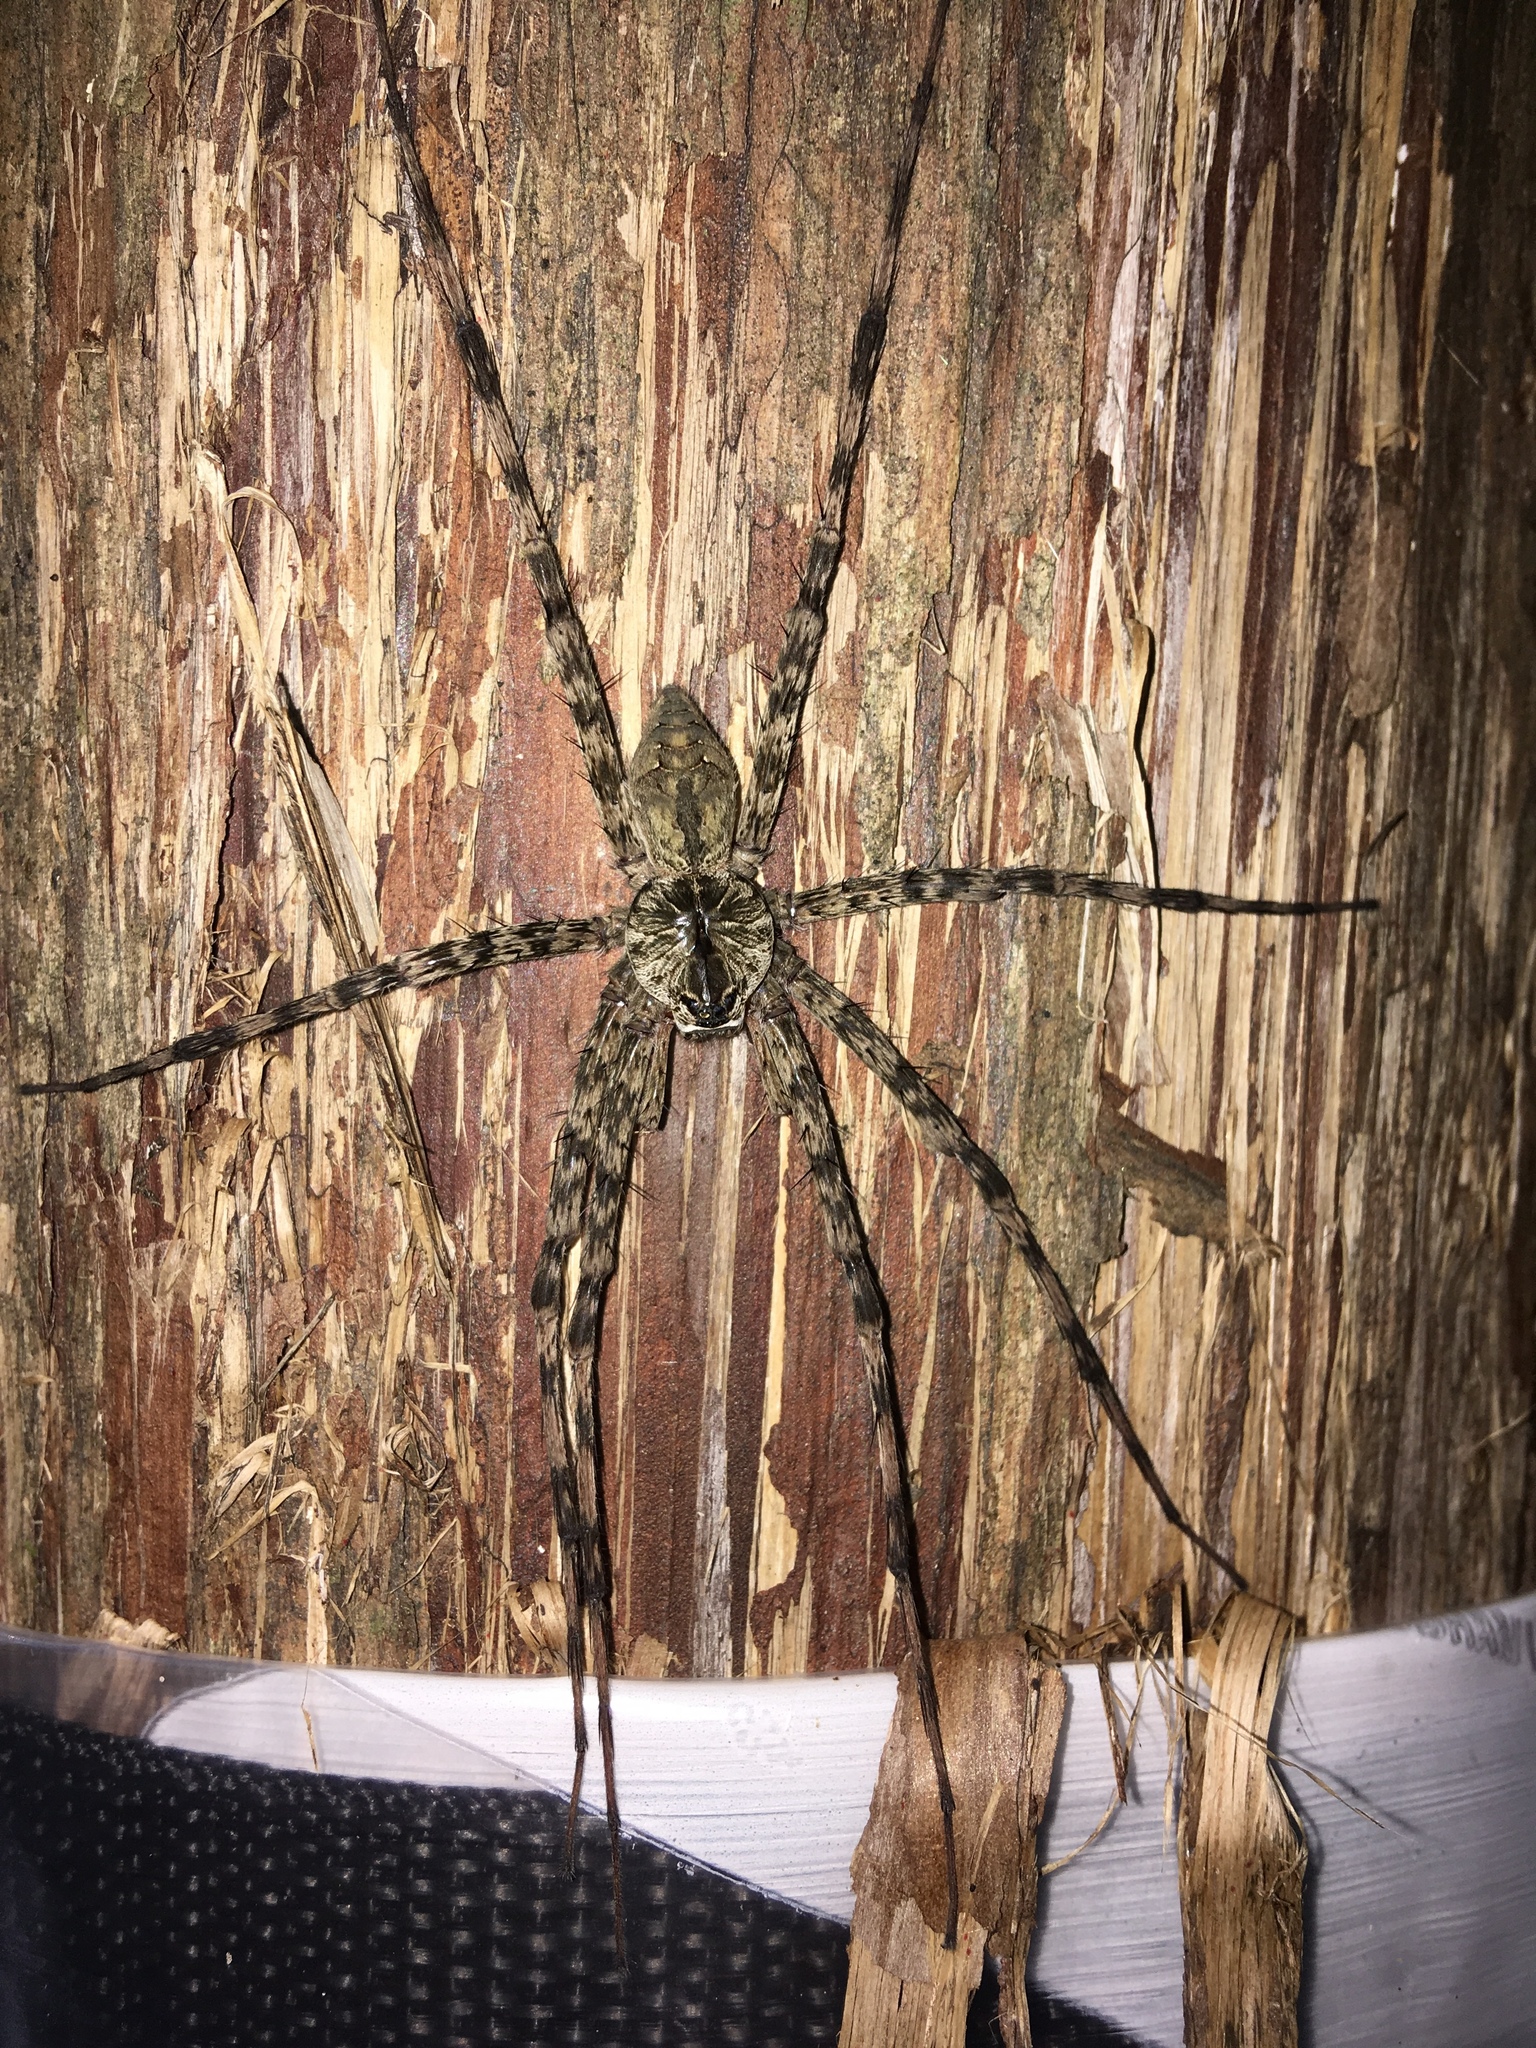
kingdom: Animalia
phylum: Arthropoda
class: Arachnida
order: Araneae
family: Pisauridae
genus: Dolomedes
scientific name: Dolomedes albineus
